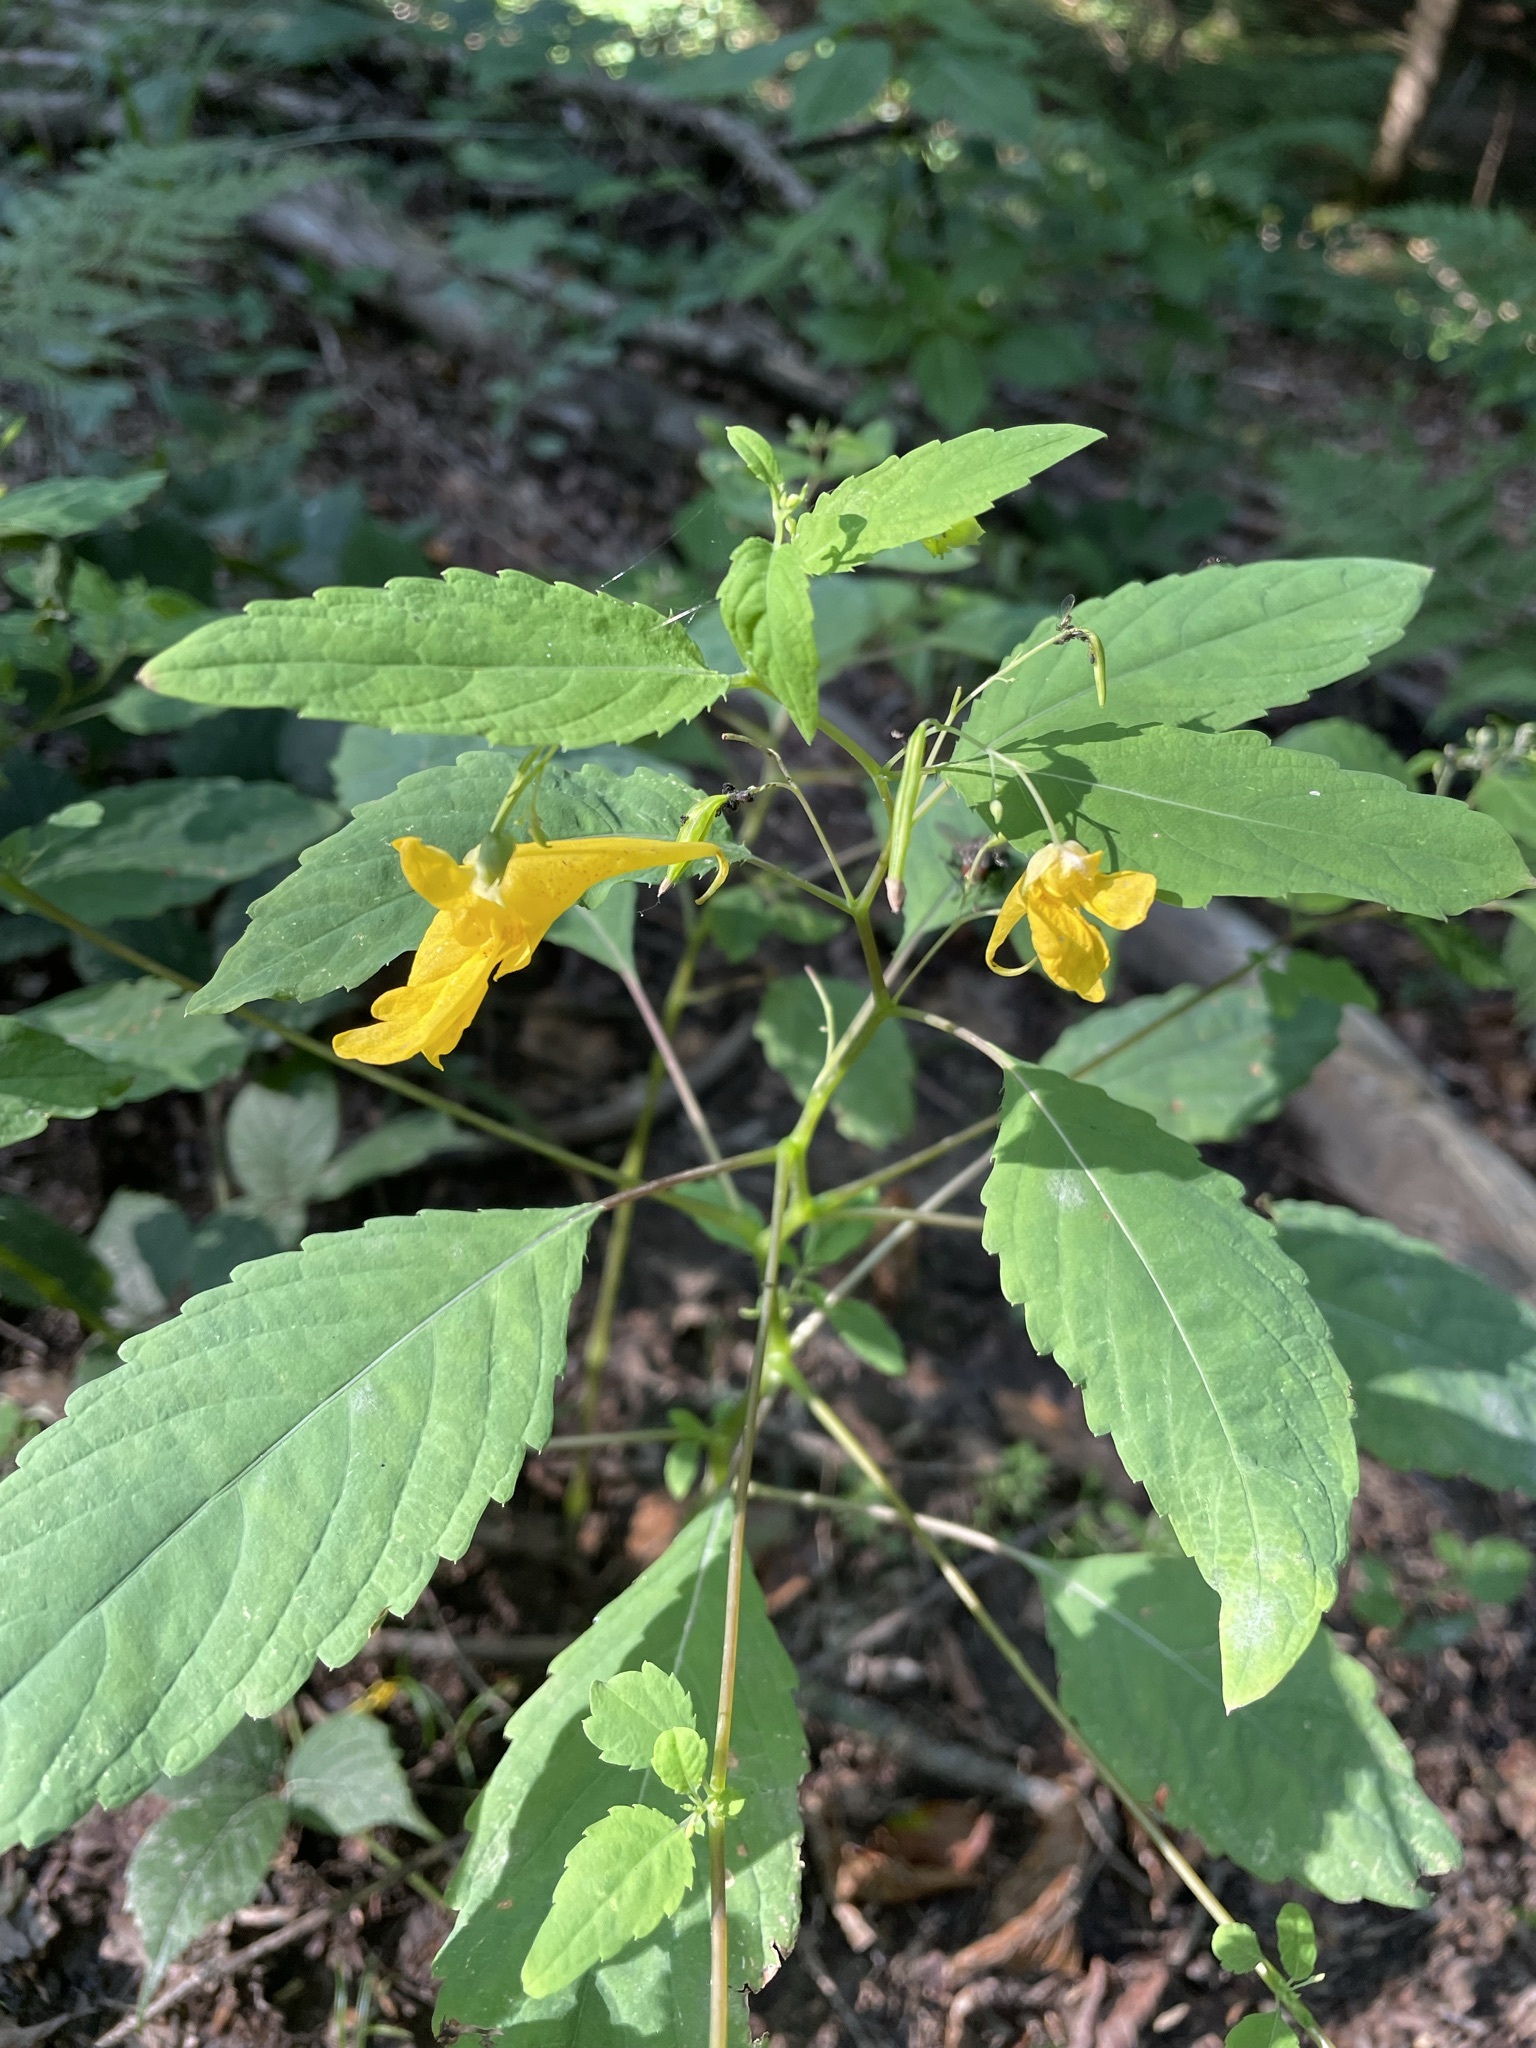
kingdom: Plantae
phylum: Tracheophyta
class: Magnoliopsida
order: Ericales
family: Balsaminaceae
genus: Impatiens
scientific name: Impatiens noli-tangere
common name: Touch-me-not balsam
